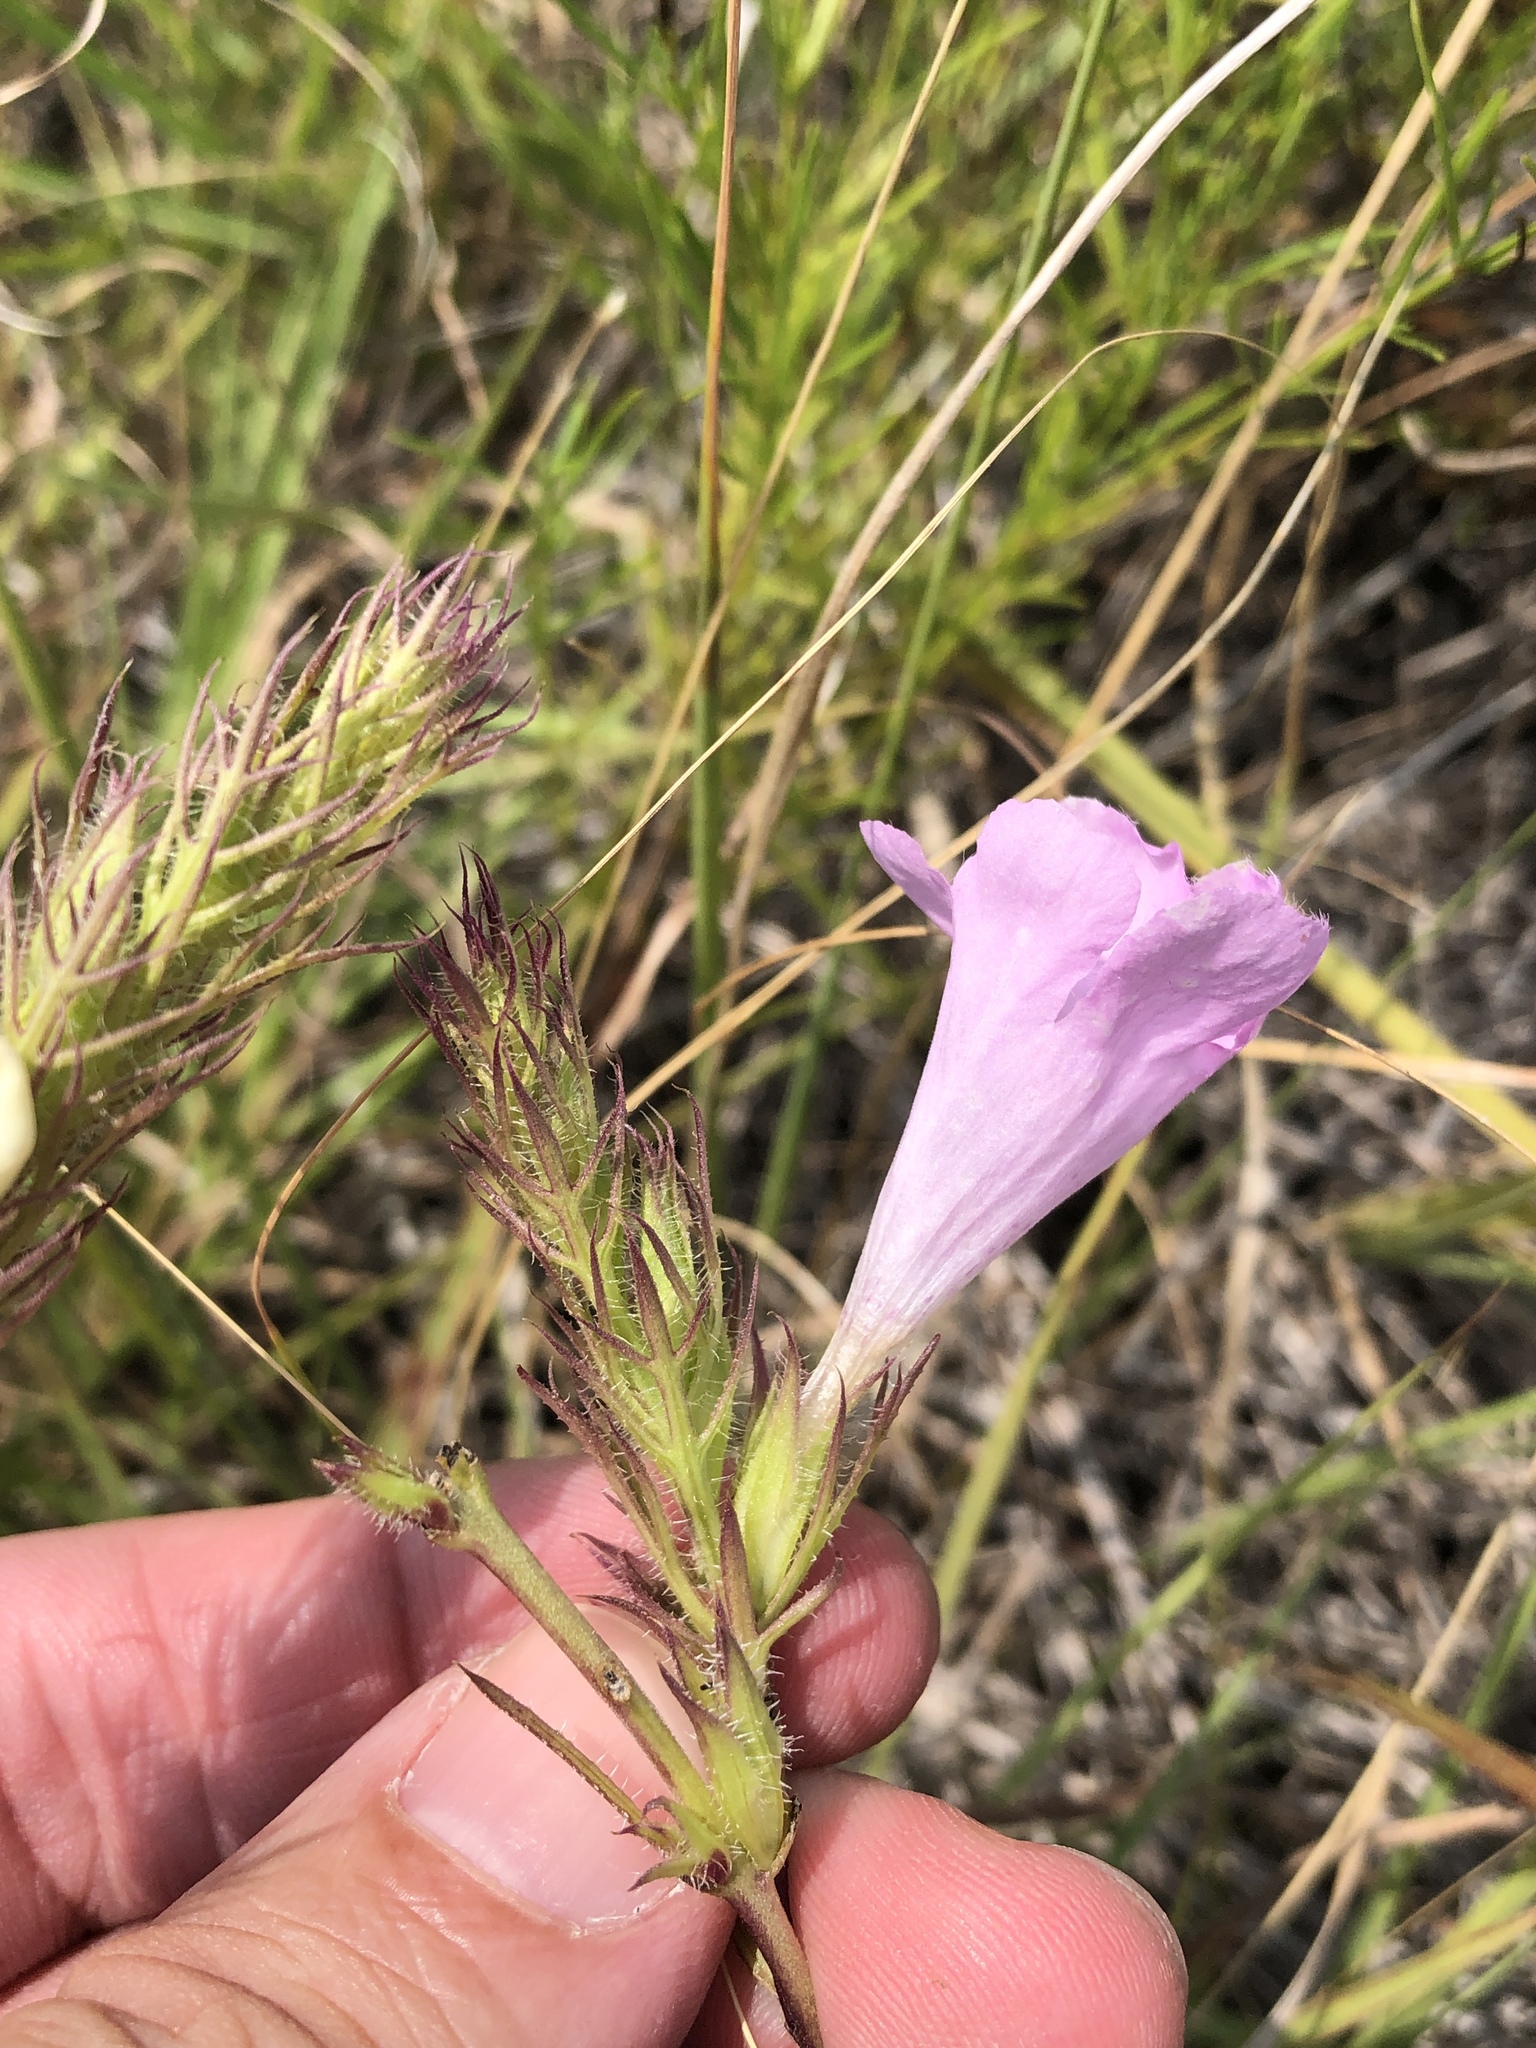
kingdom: Plantae
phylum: Tracheophyta
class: Magnoliopsida
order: Lamiales
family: Orobanchaceae
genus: Agalinis
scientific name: Agalinis densiflora
